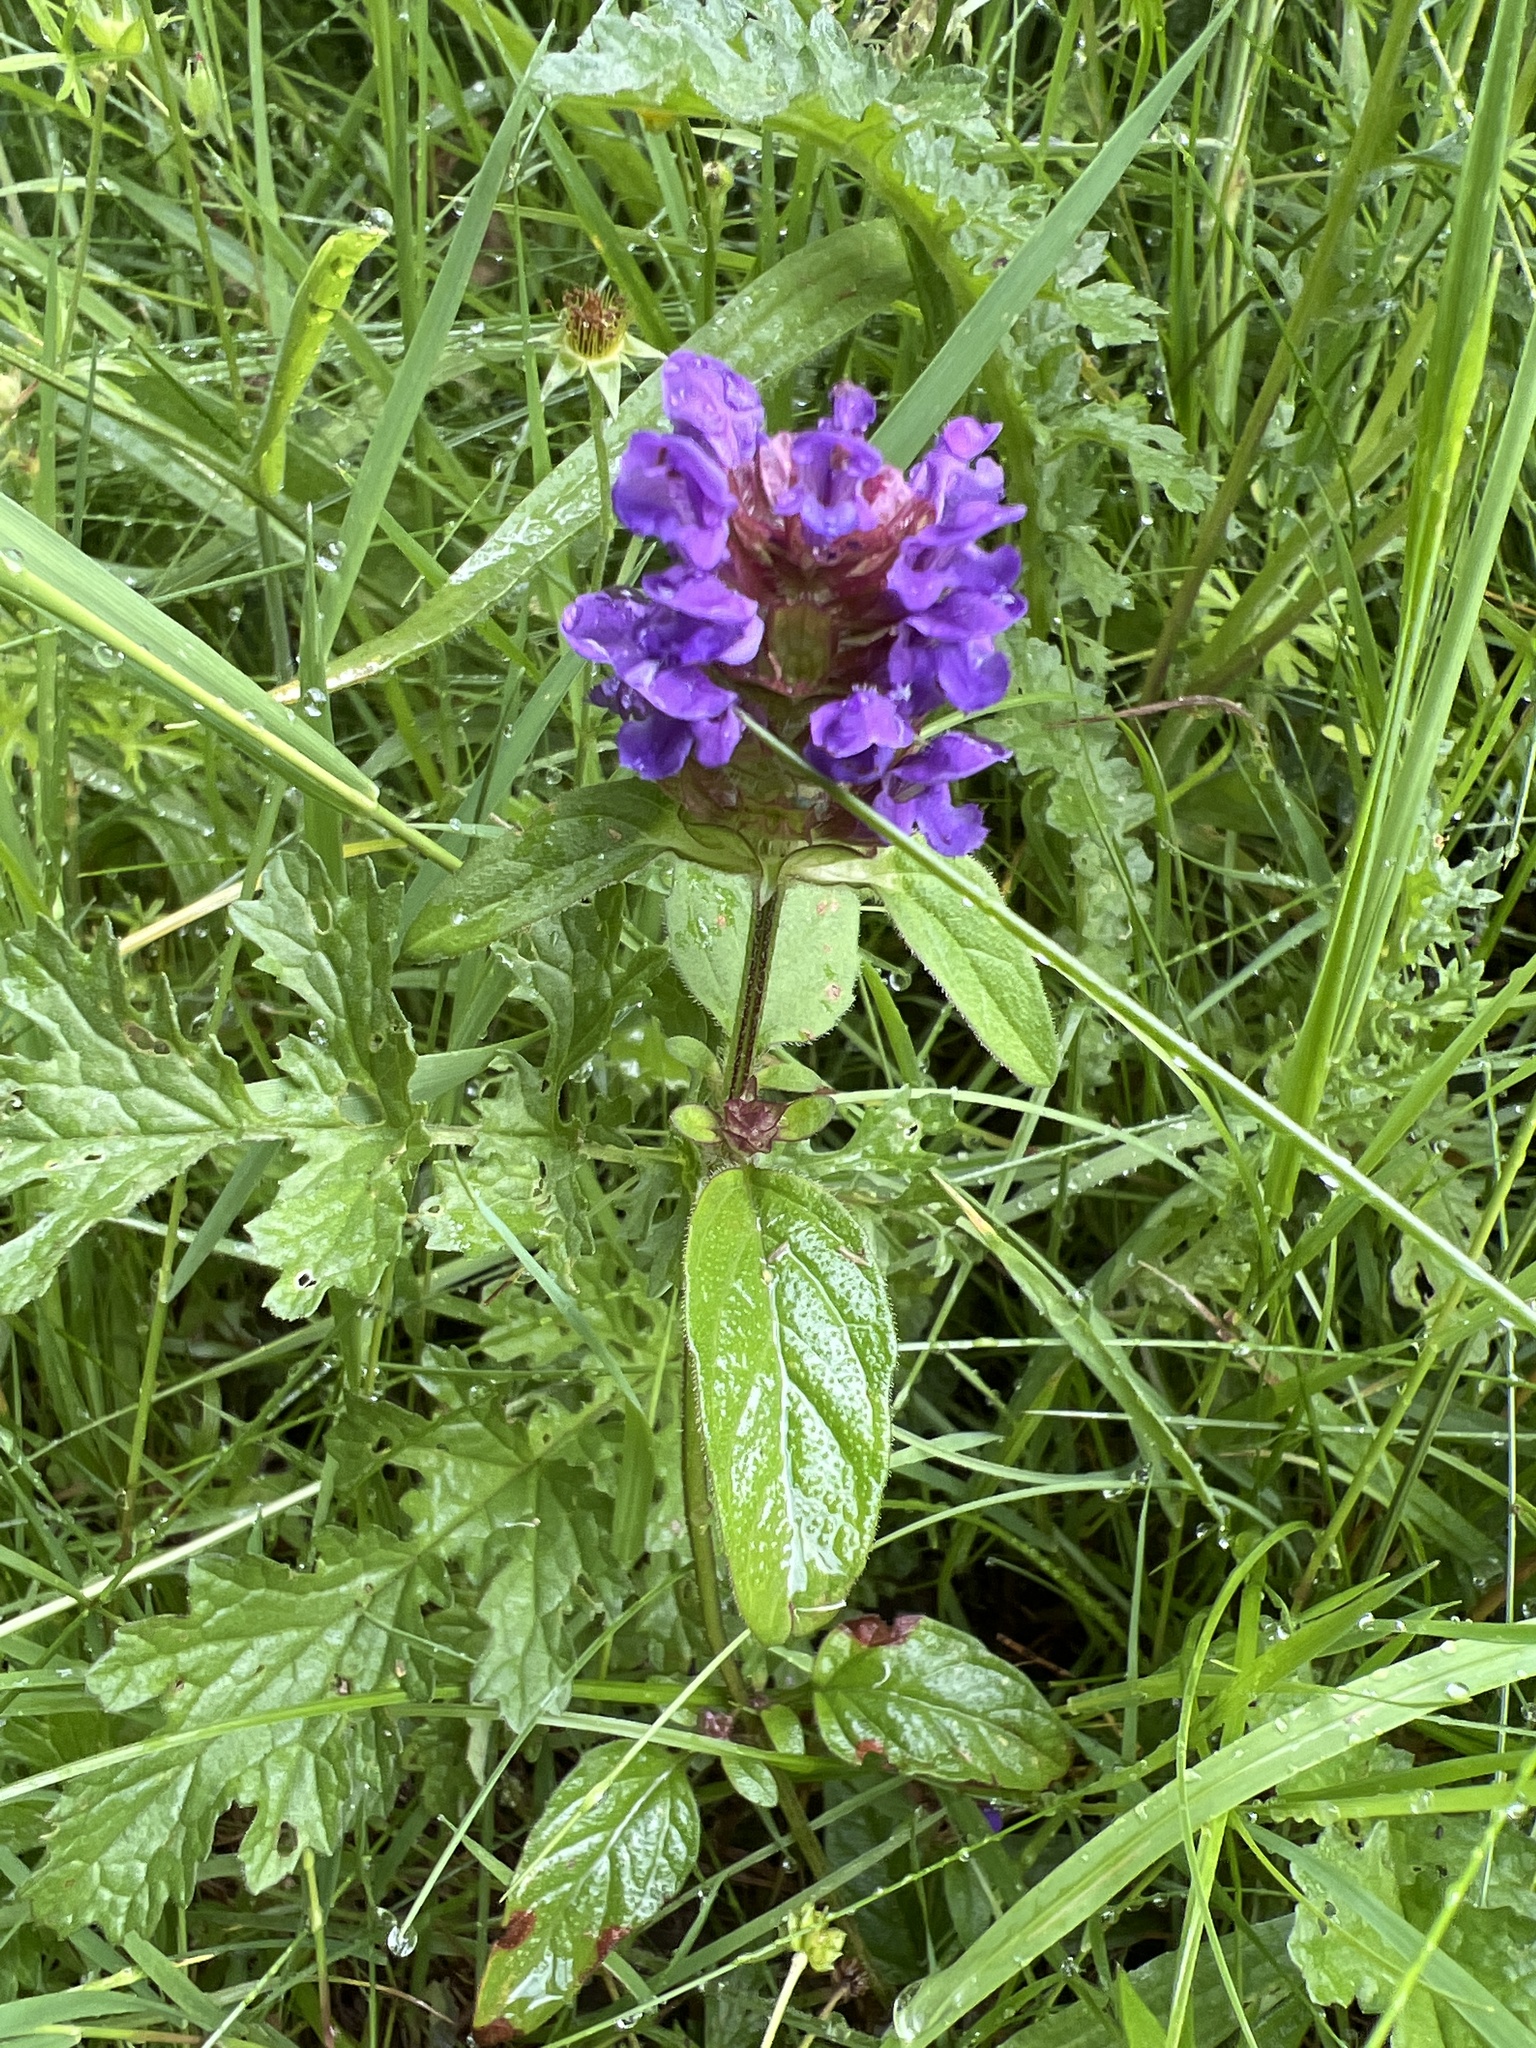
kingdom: Plantae
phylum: Tracheophyta
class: Magnoliopsida
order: Lamiales
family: Lamiaceae
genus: Prunella
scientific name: Prunella vulgaris
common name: Heal-all
